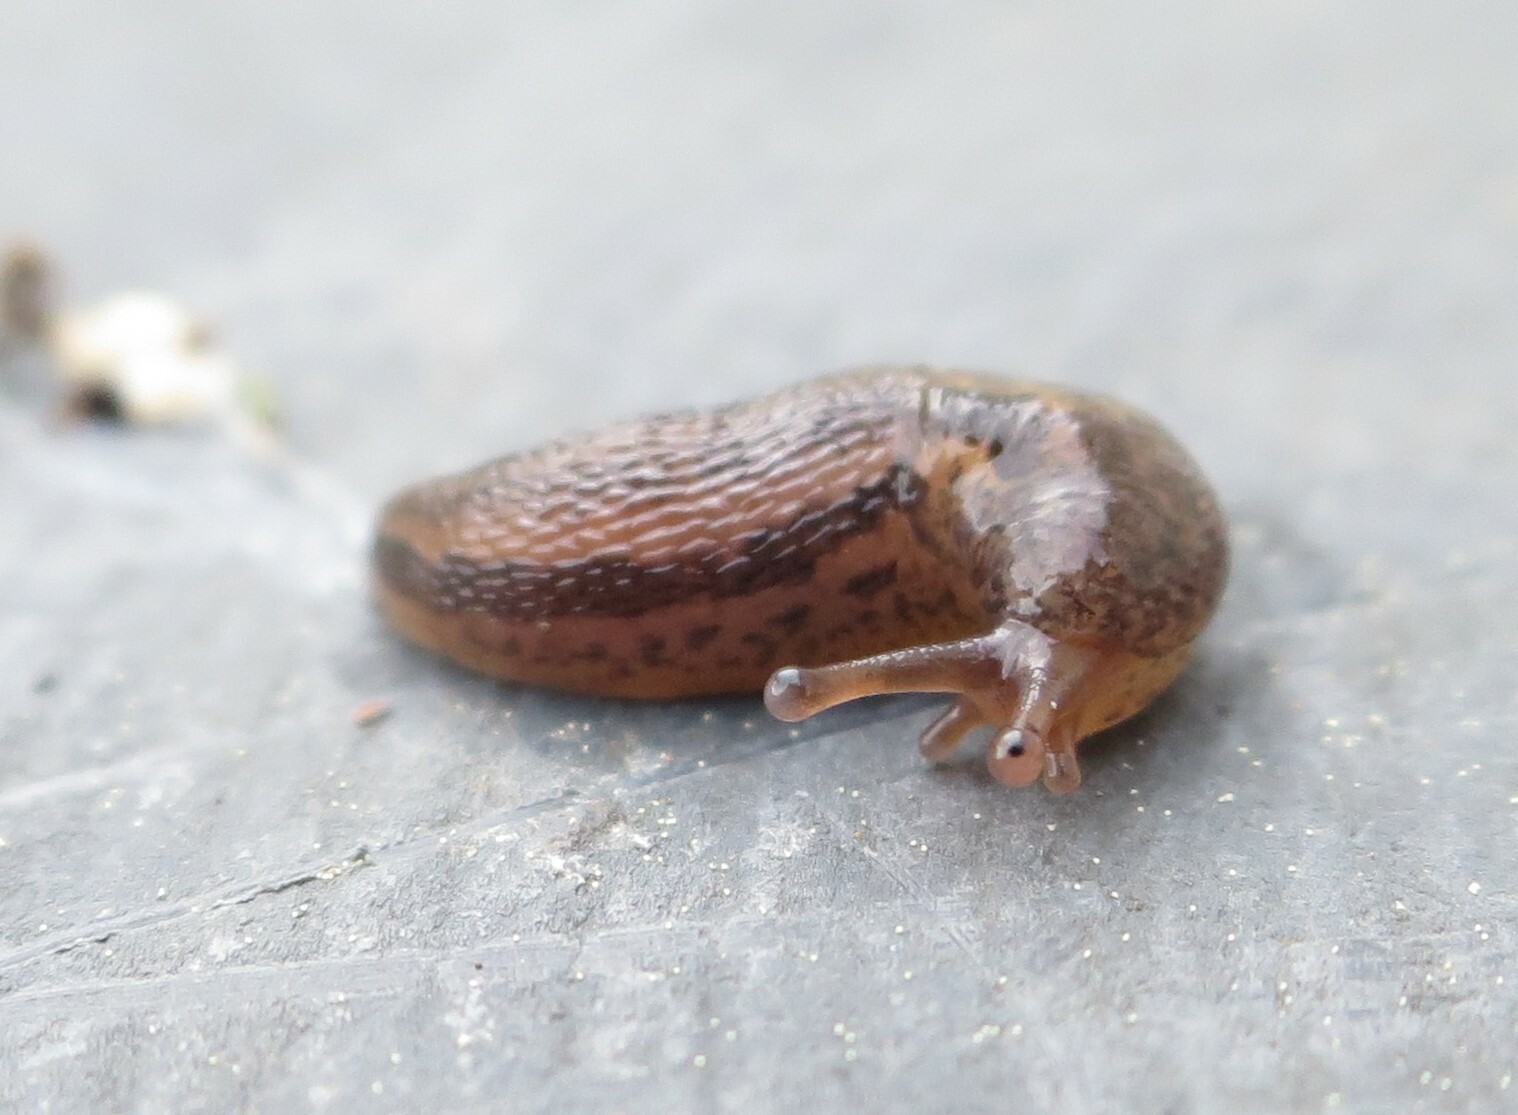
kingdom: Animalia
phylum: Mollusca
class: Gastropoda
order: Stylommatophora
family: Limacidae
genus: Limax
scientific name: Limax maximus
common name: Great grey slug
